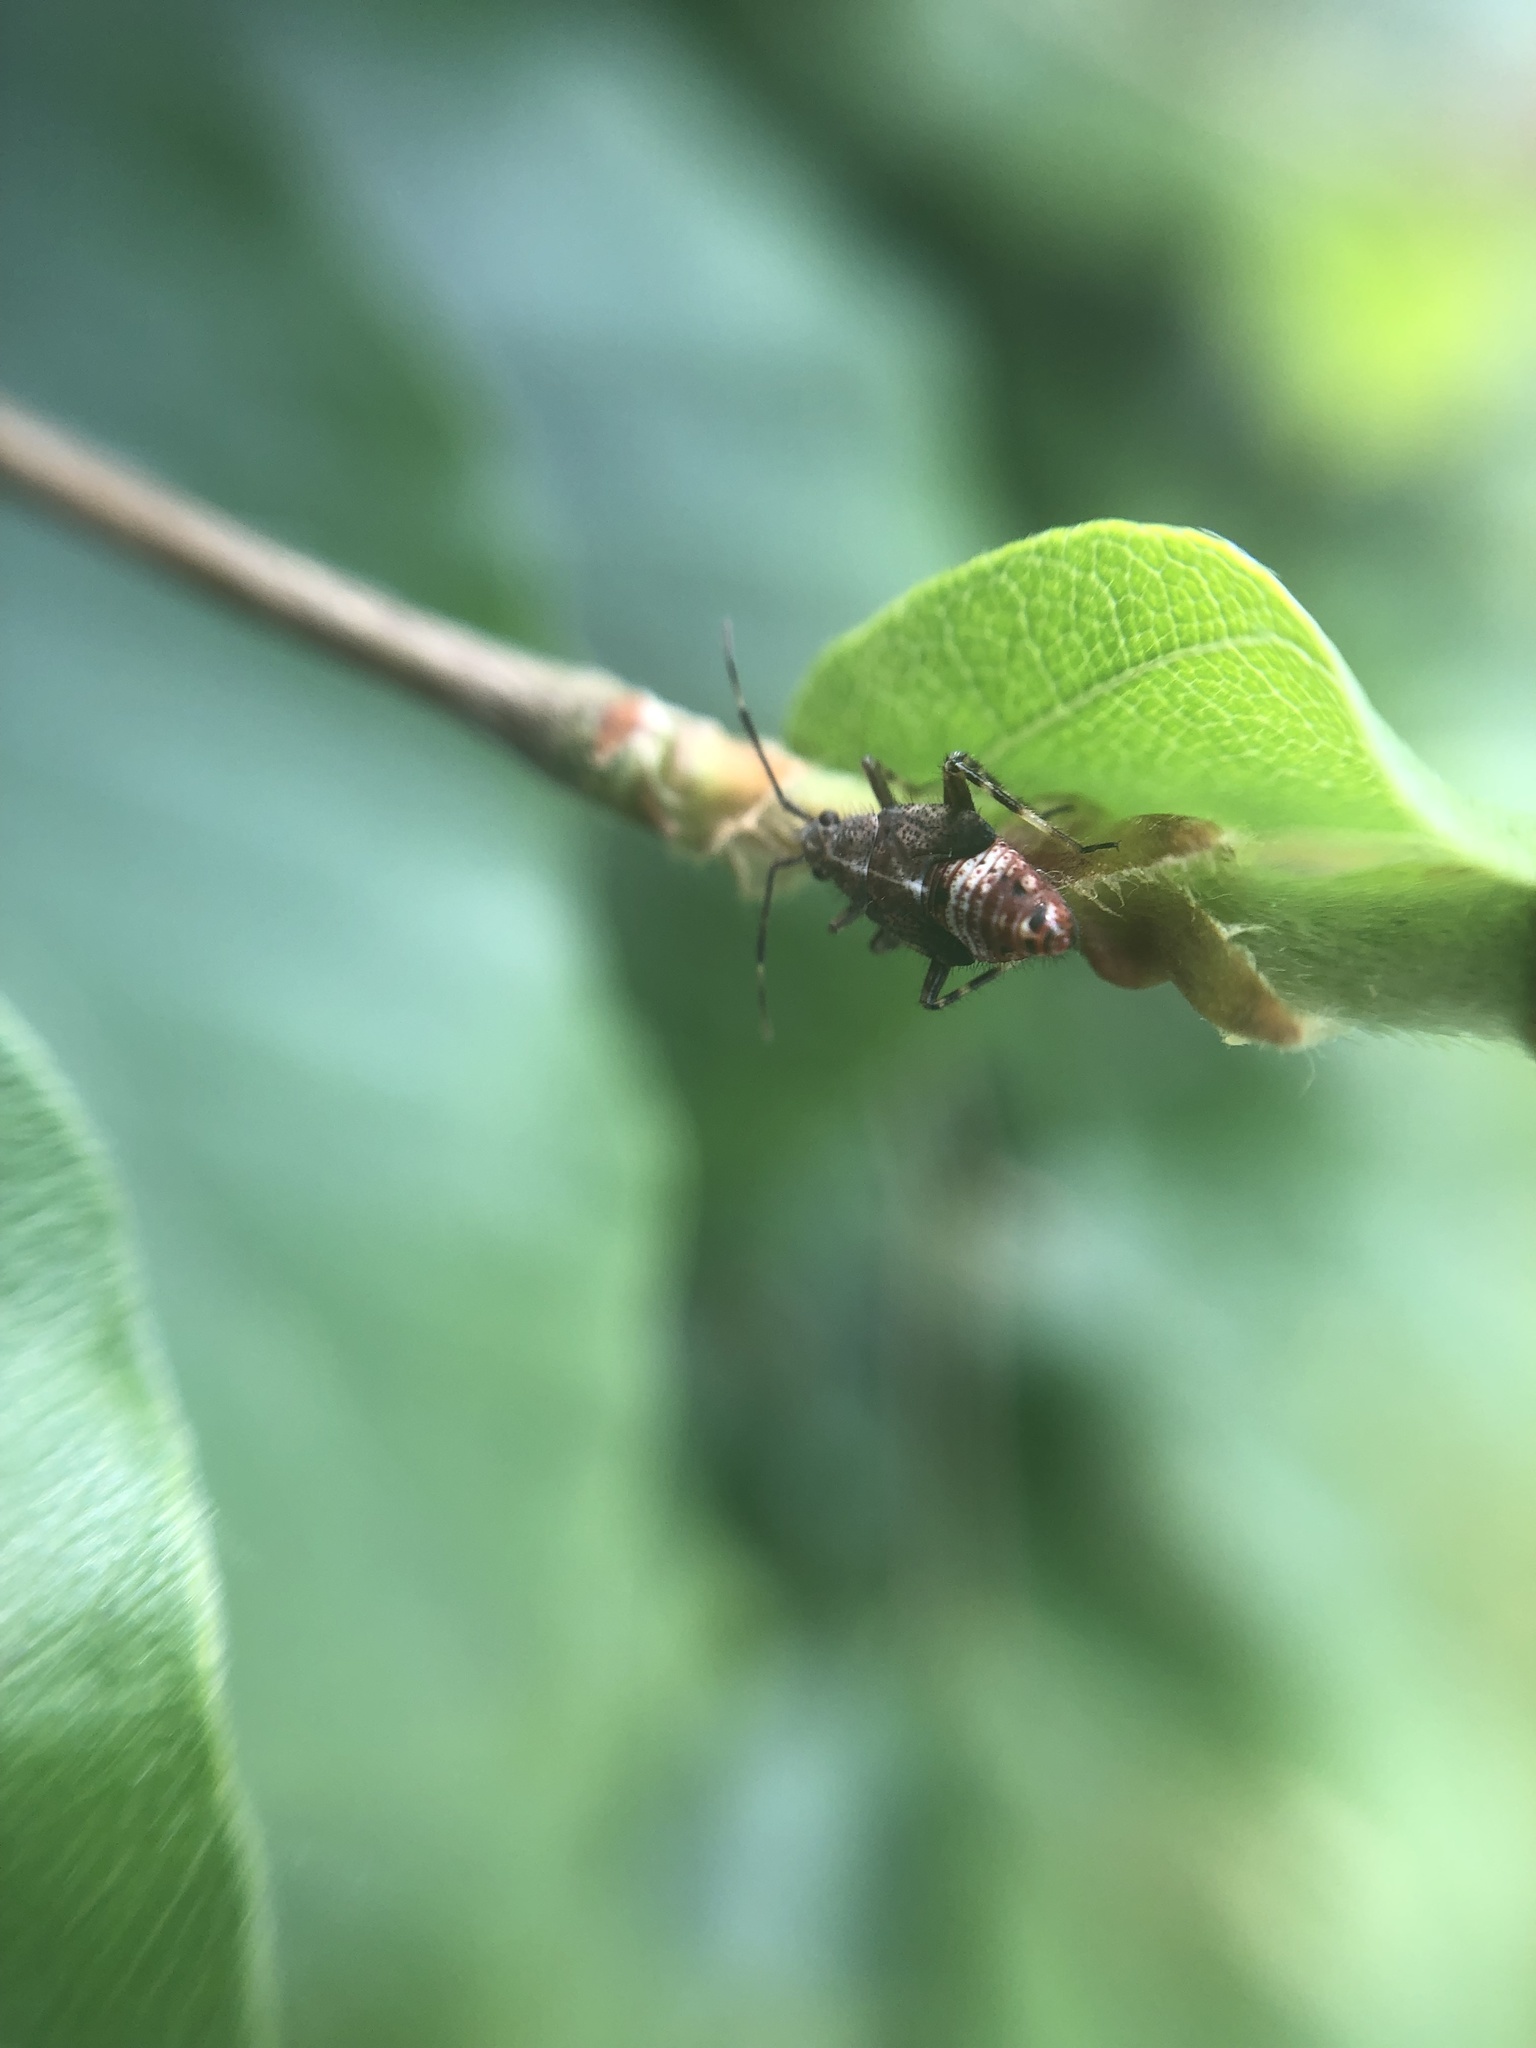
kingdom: Animalia
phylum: Arthropoda
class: Insecta
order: Hemiptera
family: Miridae
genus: Deraeocoris
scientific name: Deraeocoris flavilinea
